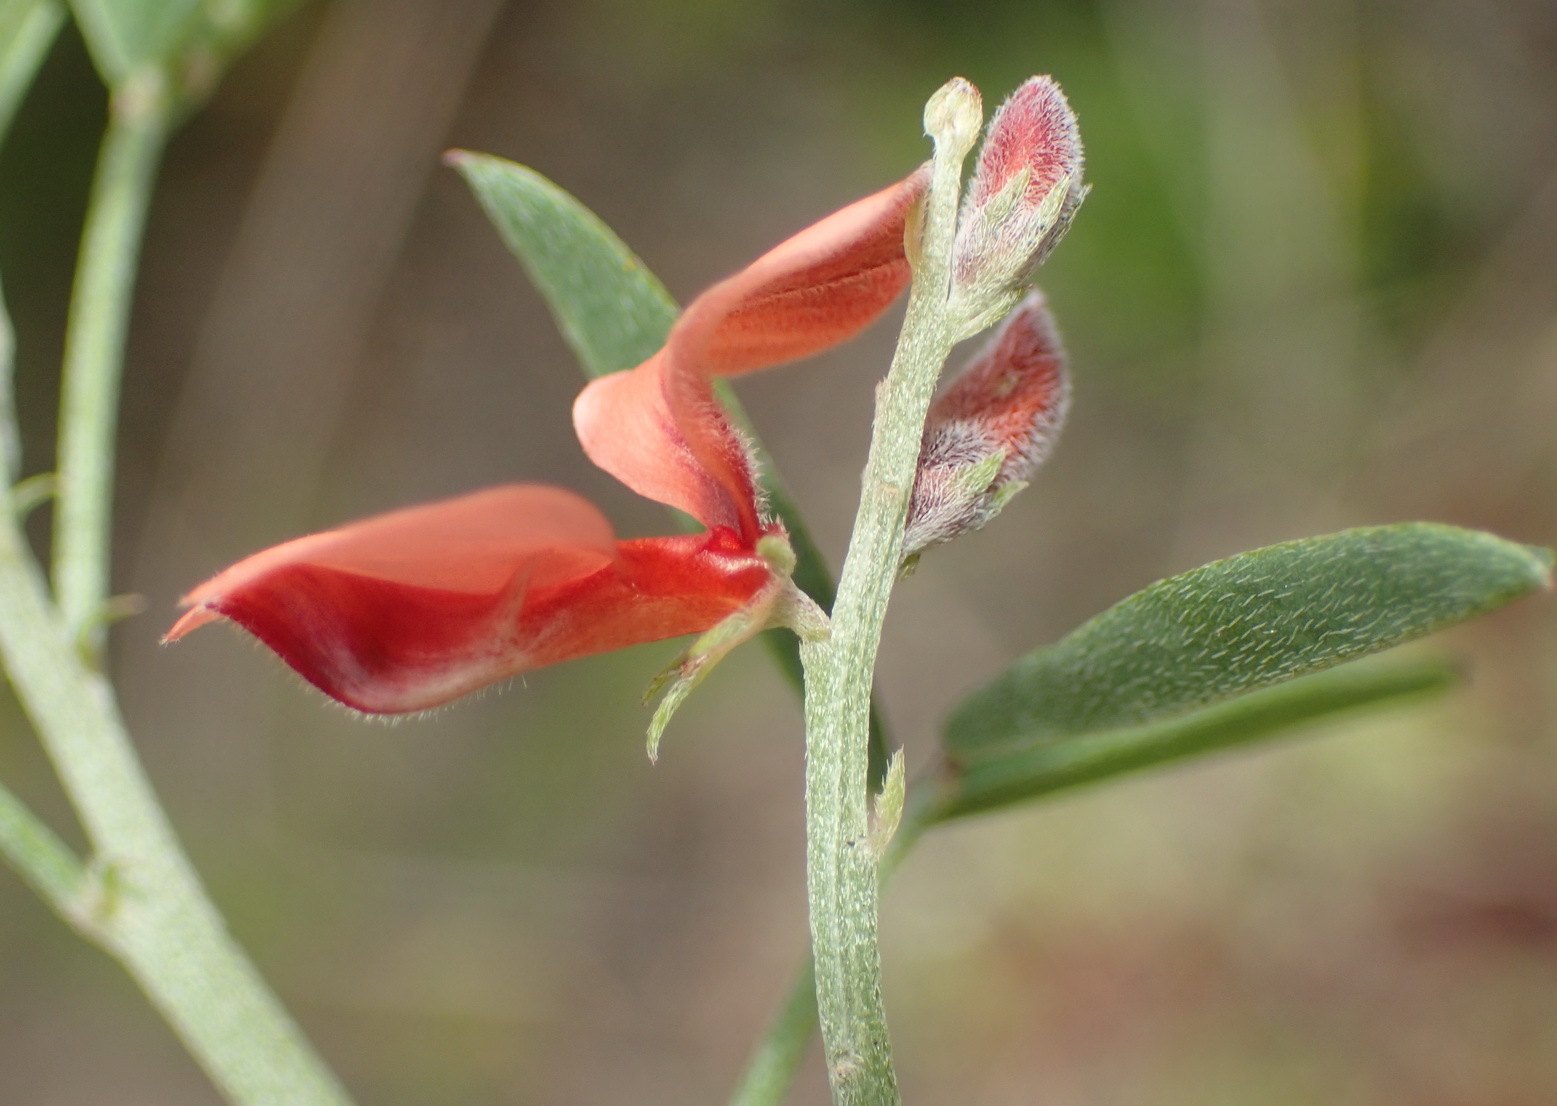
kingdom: Plantae
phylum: Tracheophyta
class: Magnoliopsida
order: Fabales
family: Fabaceae
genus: Indigofera
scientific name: Indigofera candicans
